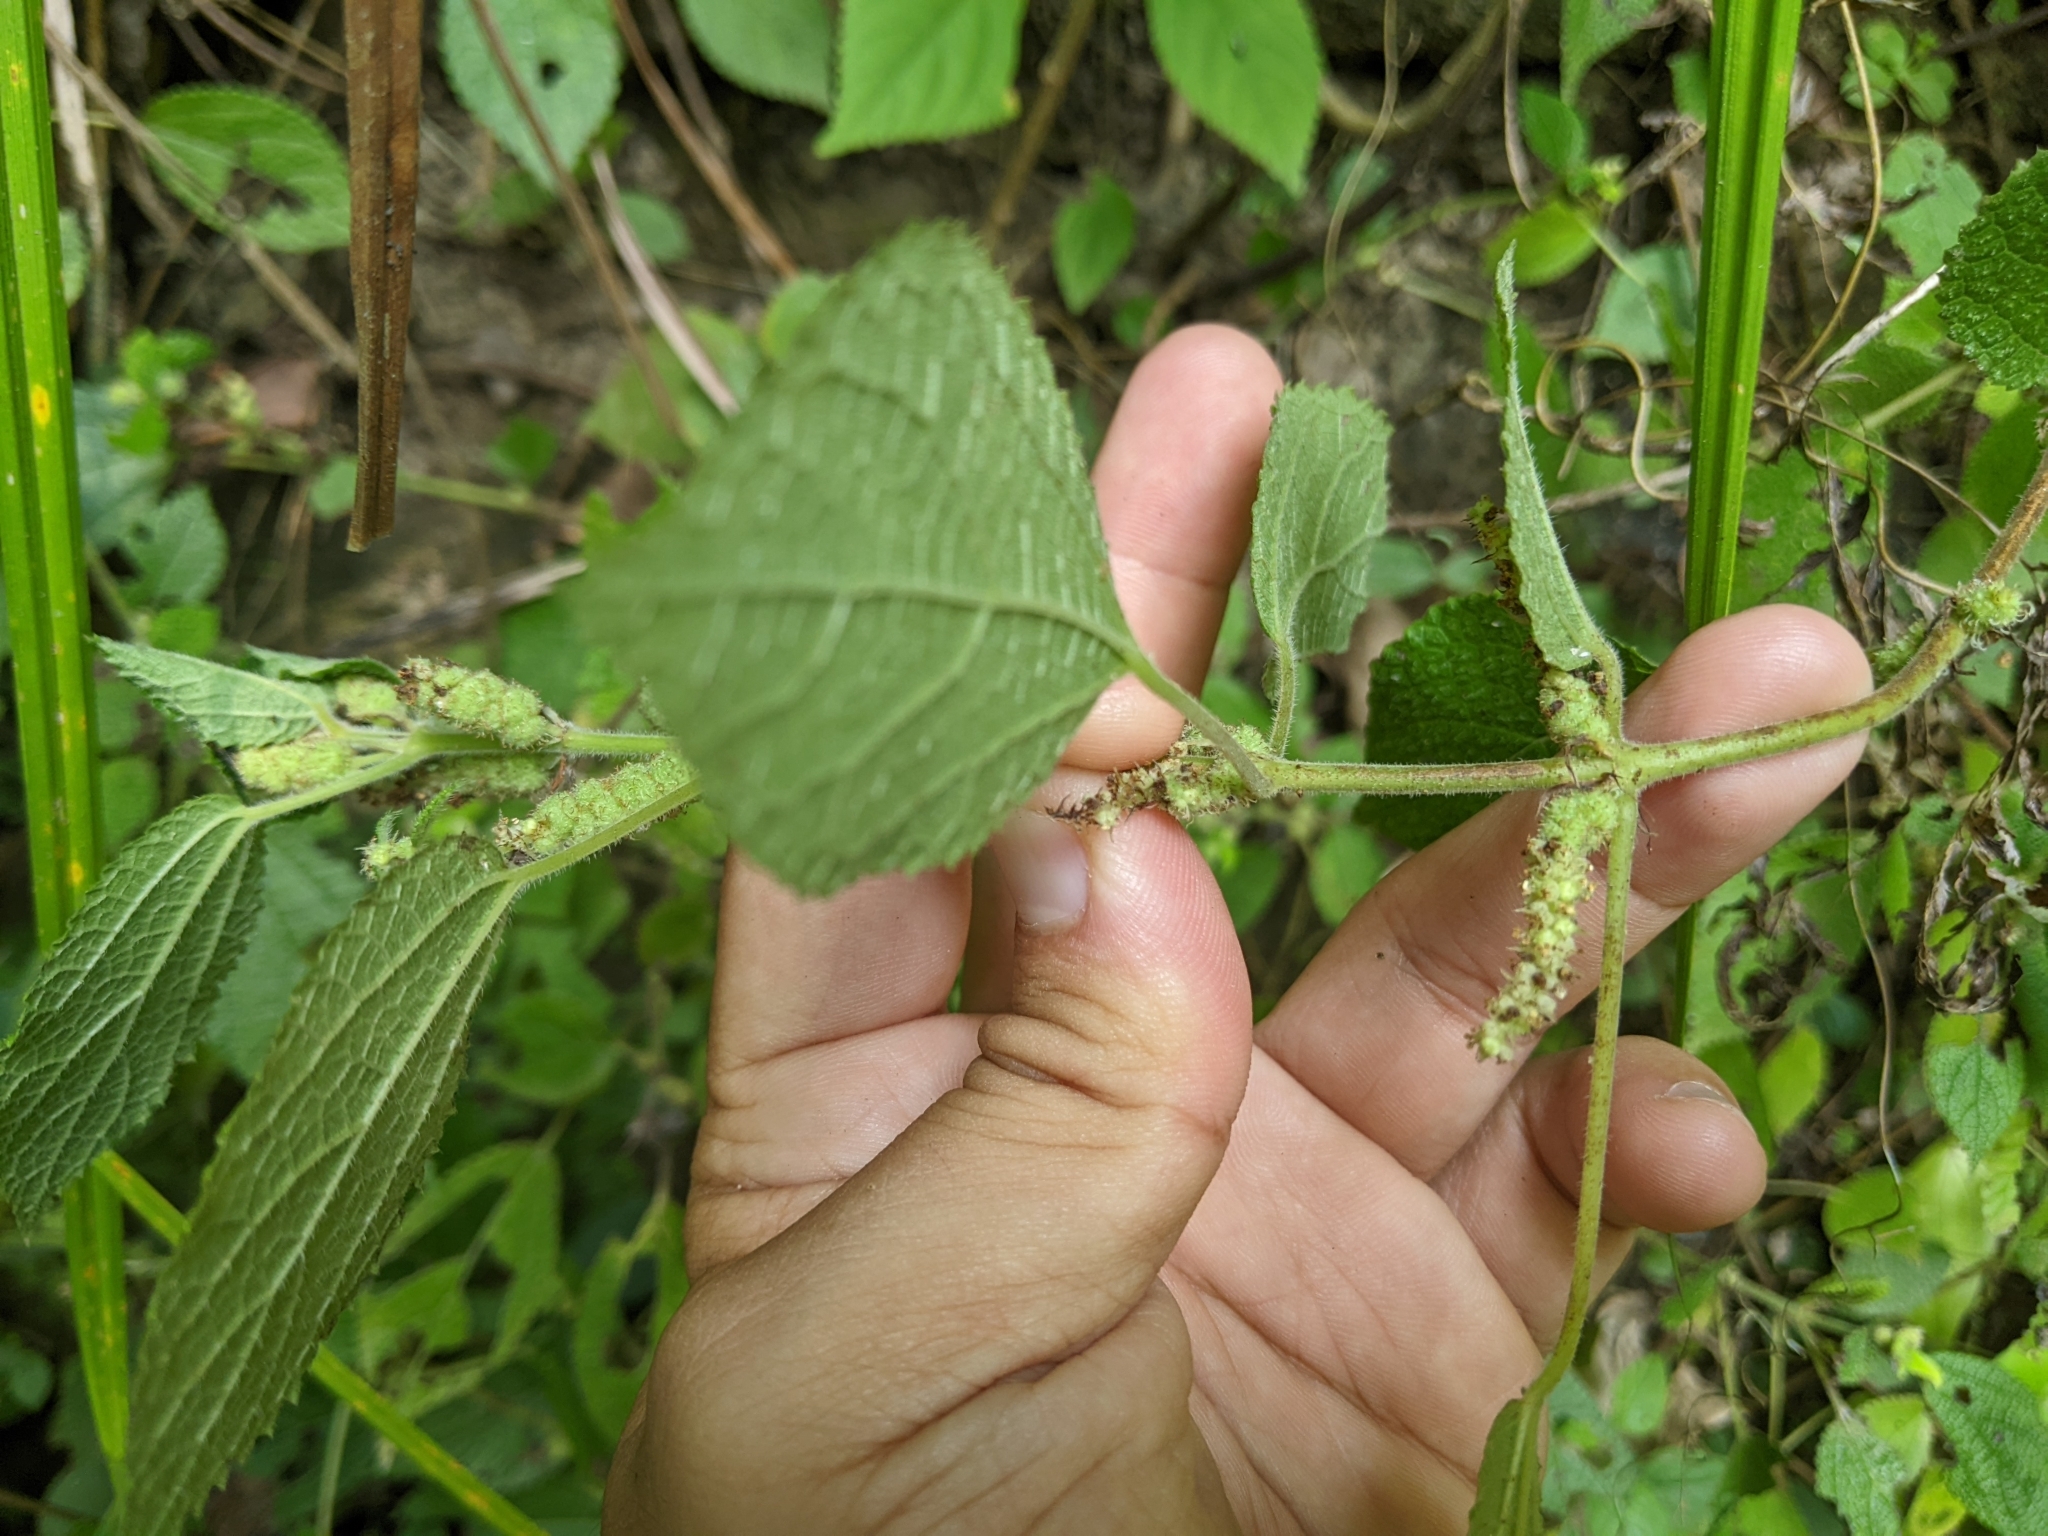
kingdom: Plantae
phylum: Tracheophyta
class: Magnoliopsida
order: Rosales
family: Urticaceae
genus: Boehmeria
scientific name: Boehmeria pilosiuscula
